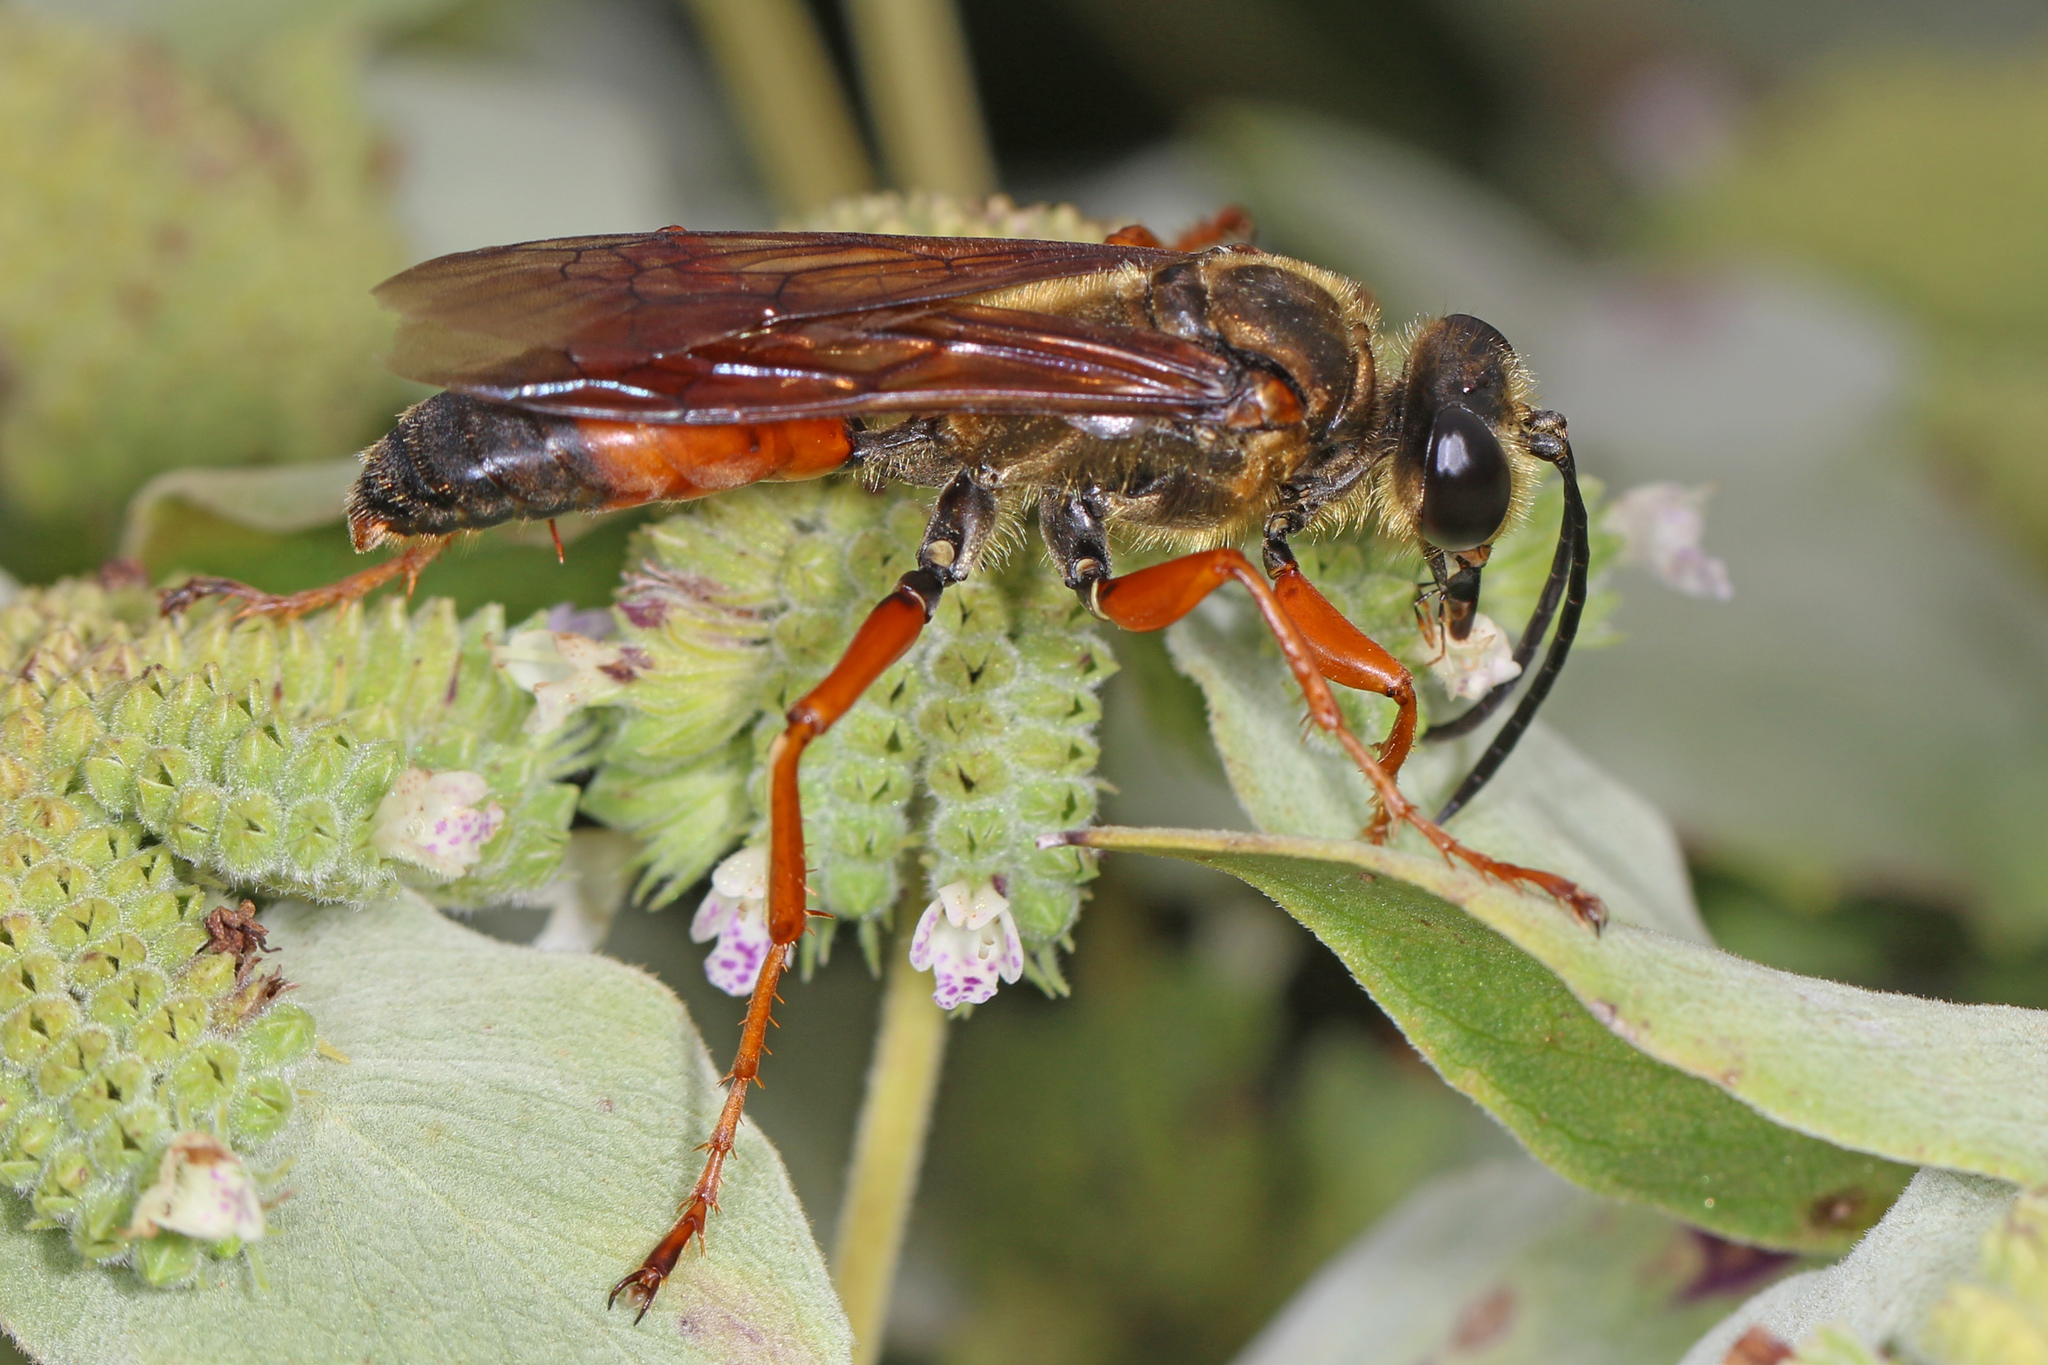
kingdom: Animalia
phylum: Arthropoda
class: Insecta
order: Hymenoptera
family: Sphecidae
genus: Sphex
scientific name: Sphex ichneumoneus
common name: Great golden digger wasp
